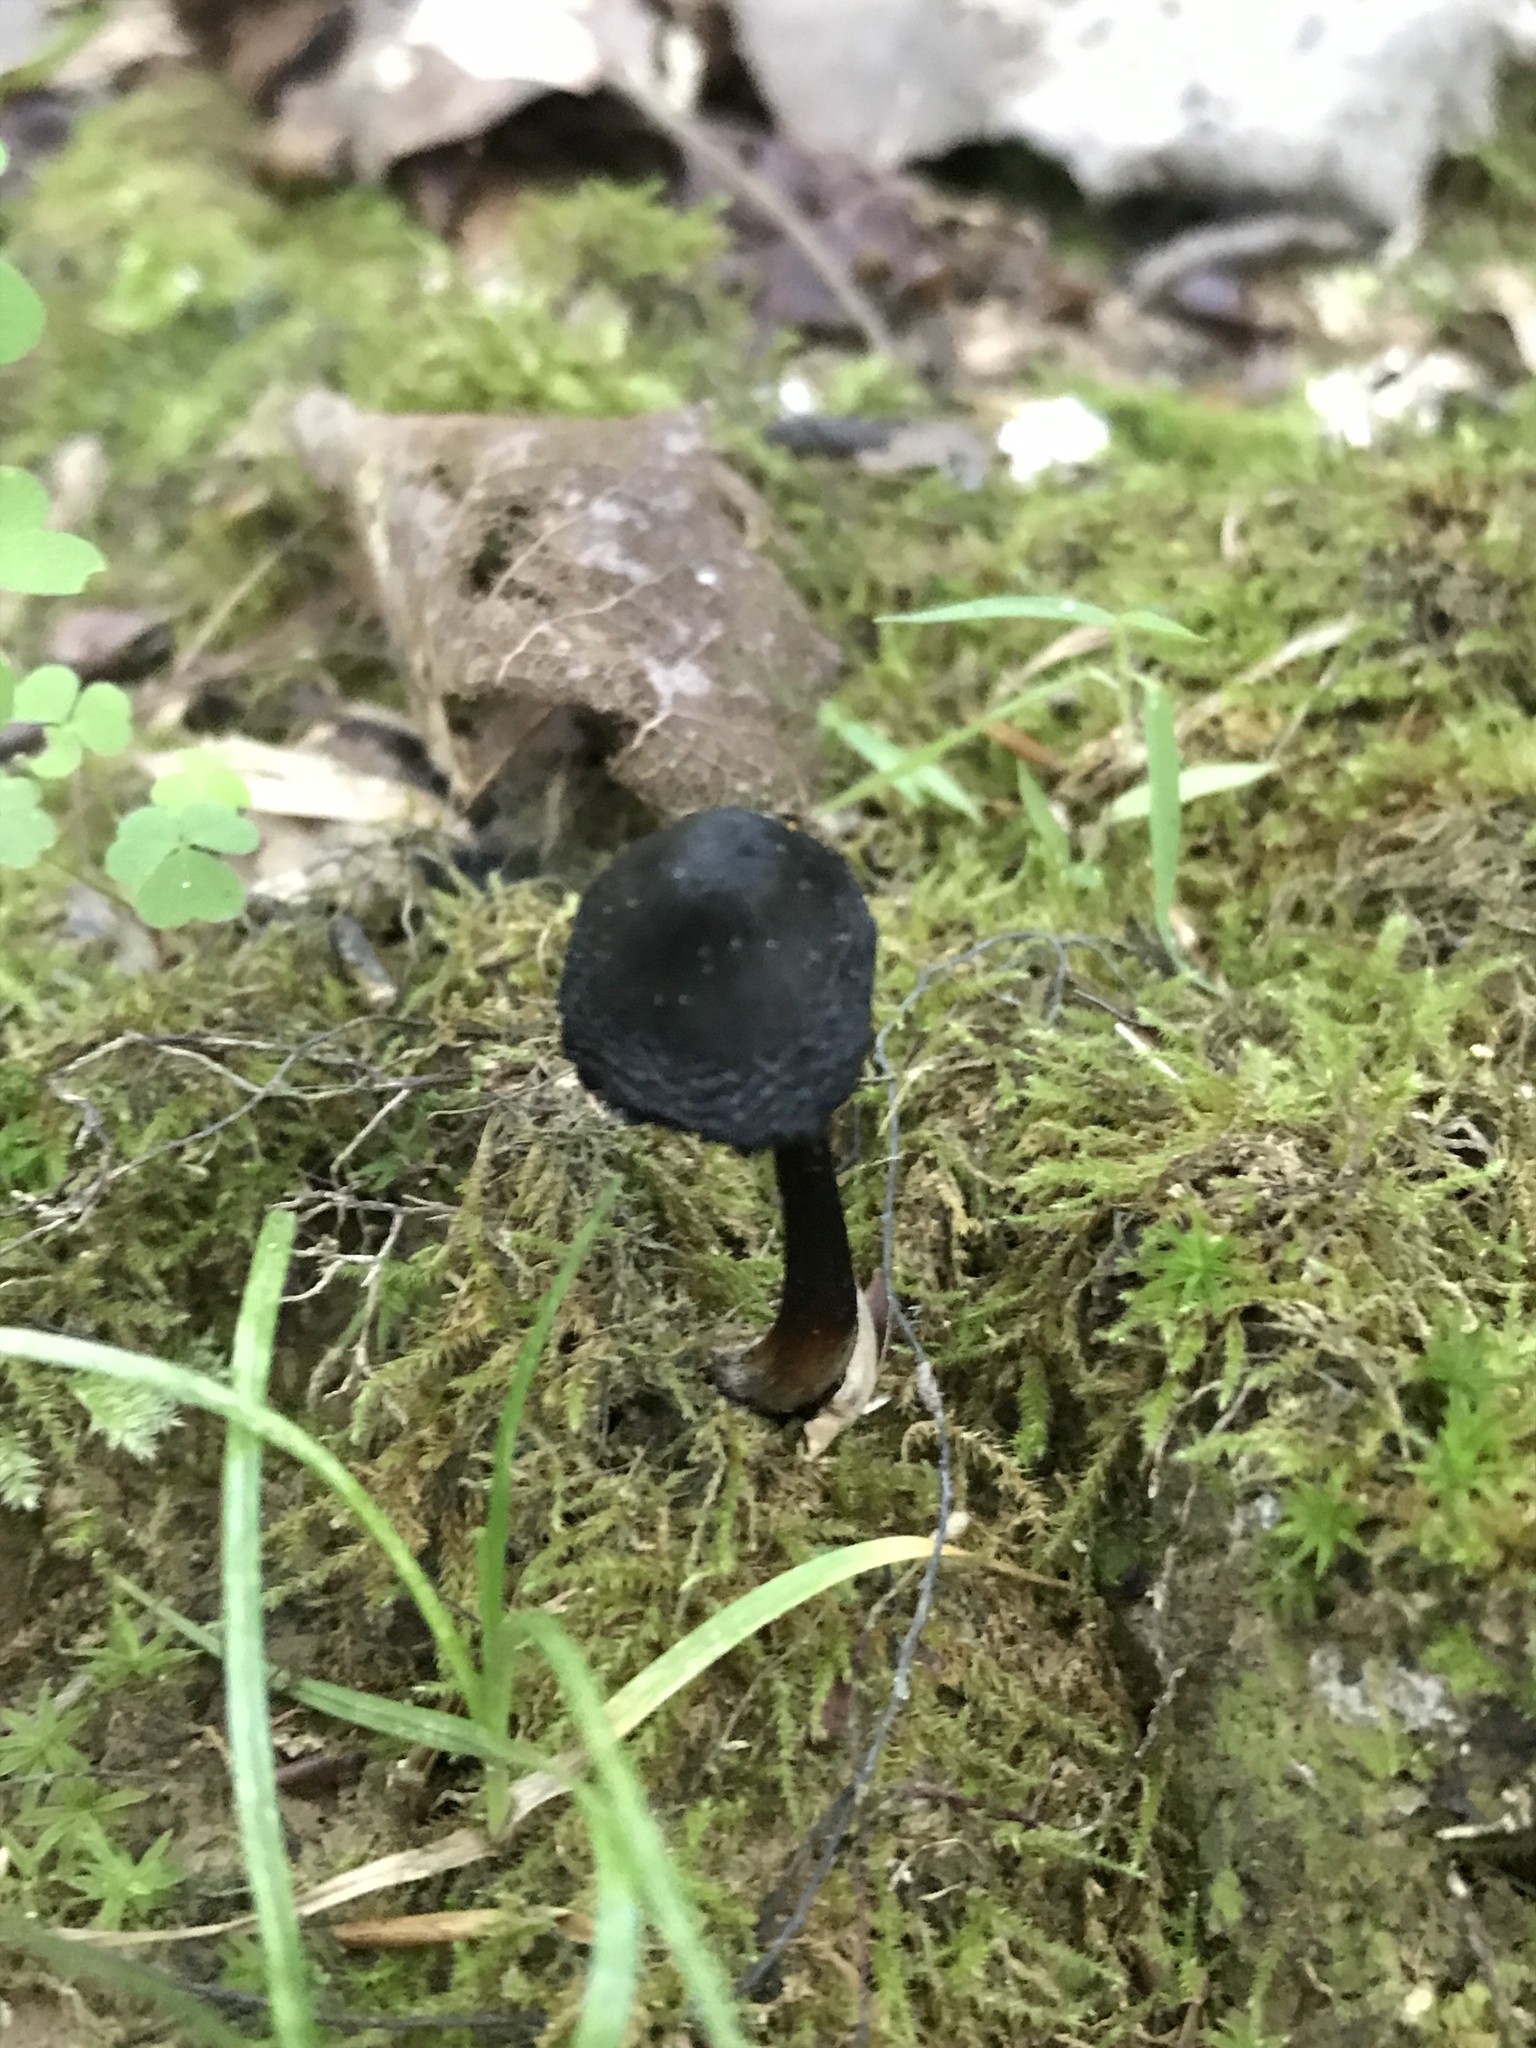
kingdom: Fungi
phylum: Basidiomycota
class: Agaricomycetes
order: Agaricales
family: Hygrophoraceae
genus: Hygrocybe
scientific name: Hygrocybe conica
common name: Blackening wax-cap
